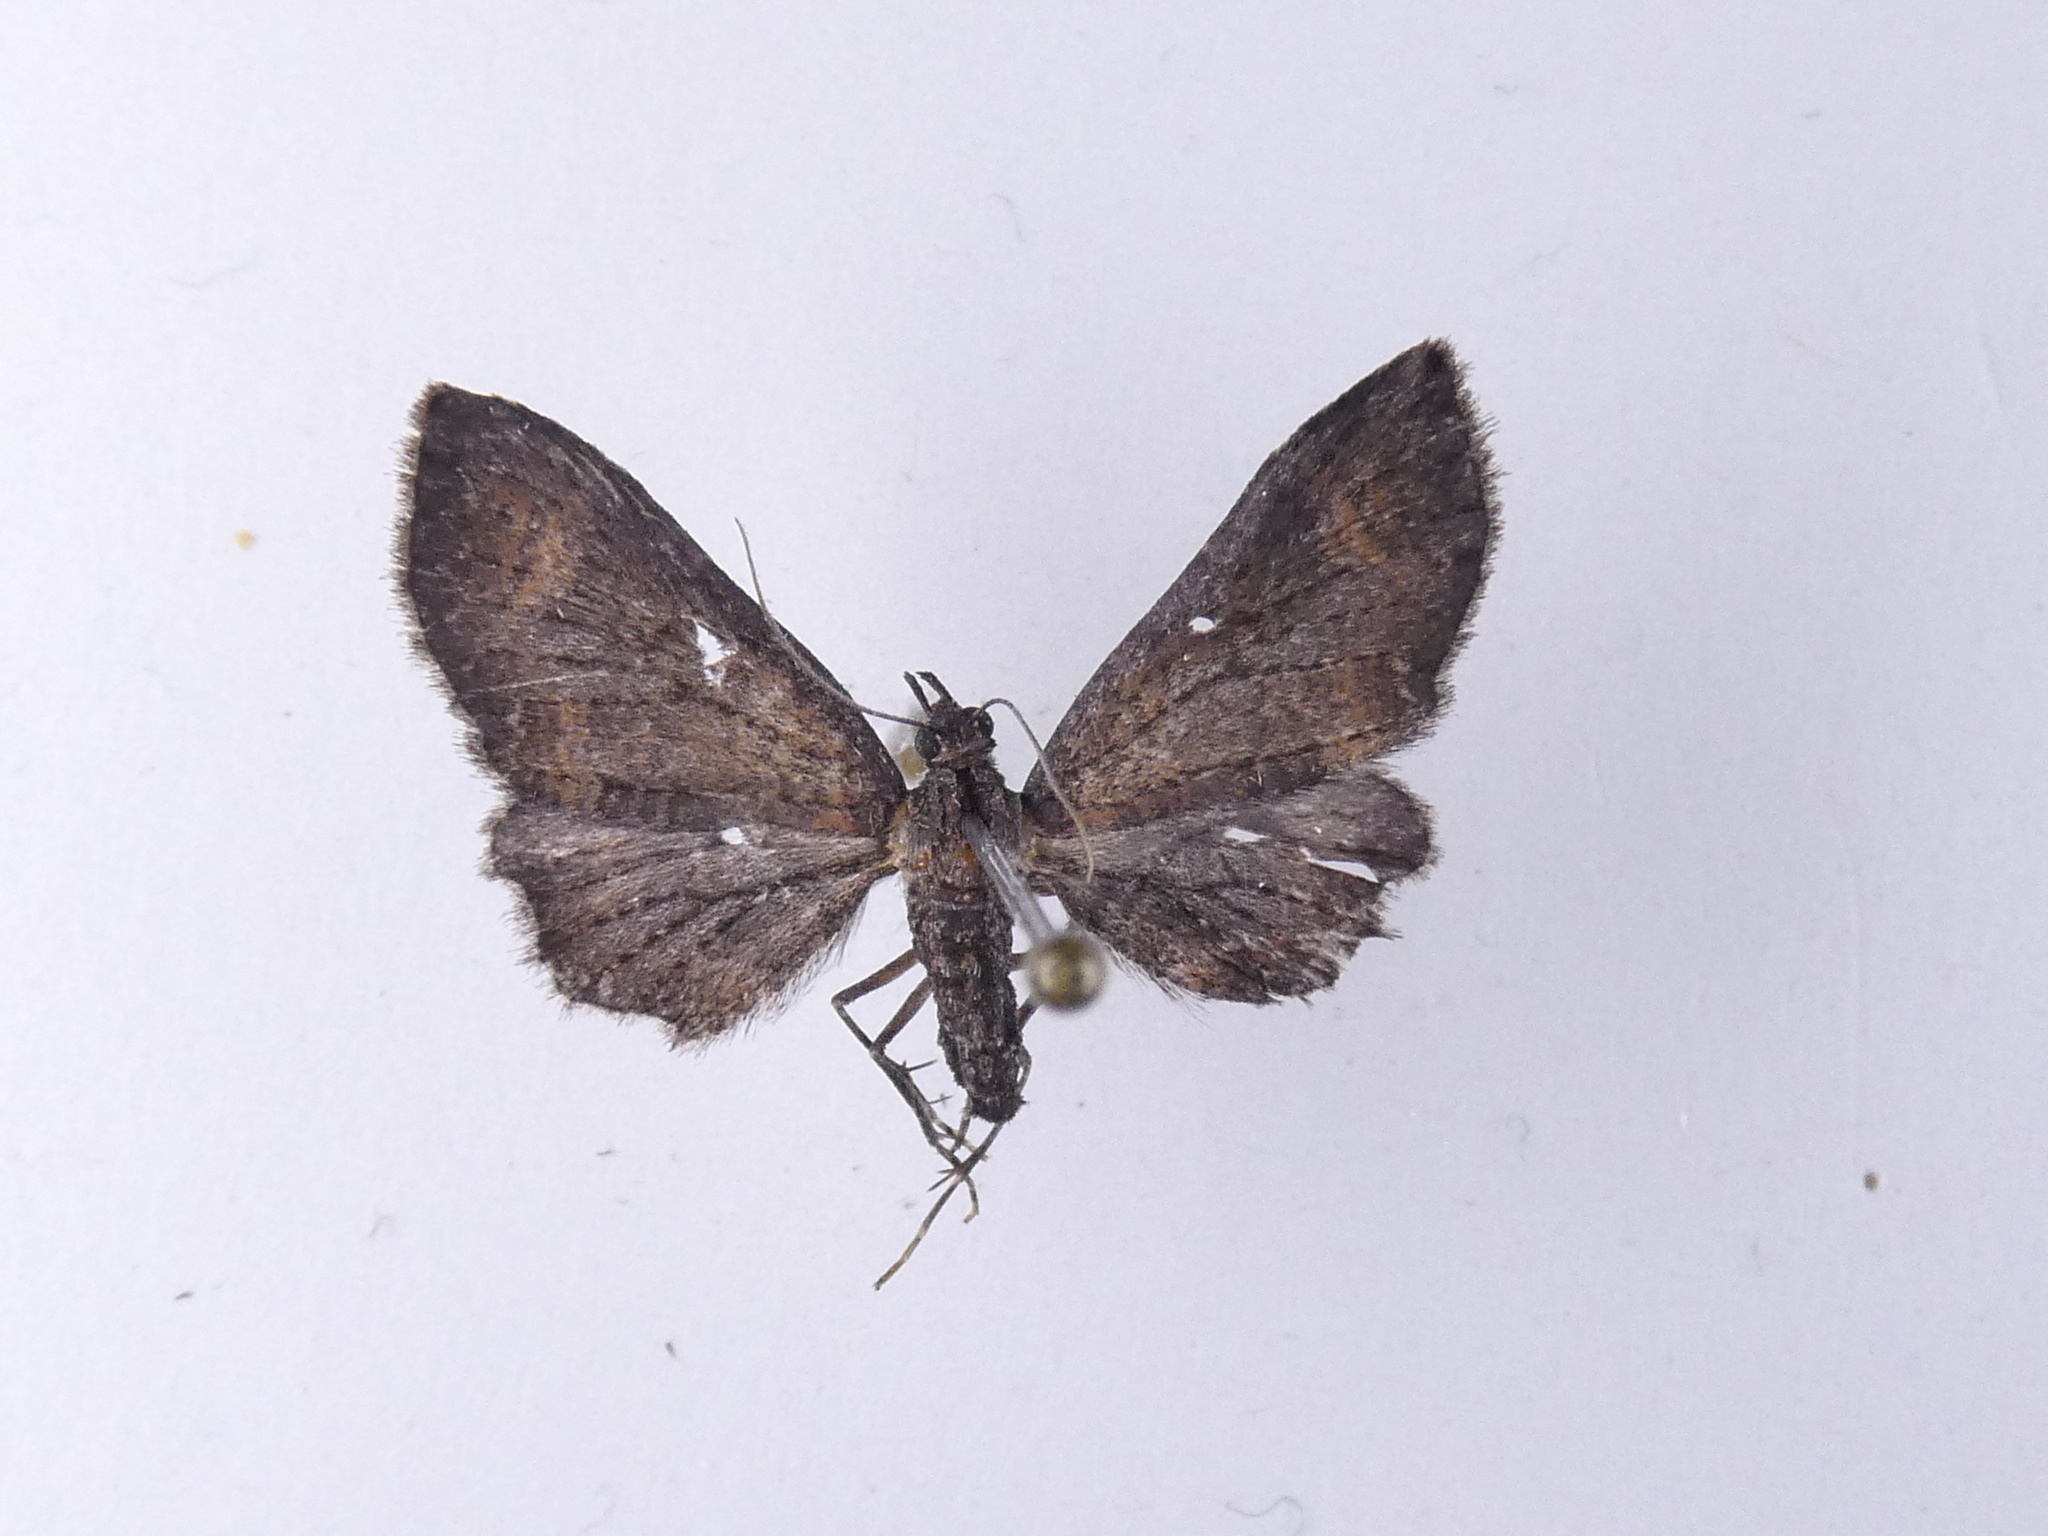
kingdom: Animalia
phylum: Arthropoda
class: Insecta
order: Lepidoptera
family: Geometridae
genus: Pasiphila
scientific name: Pasiphila dryas
